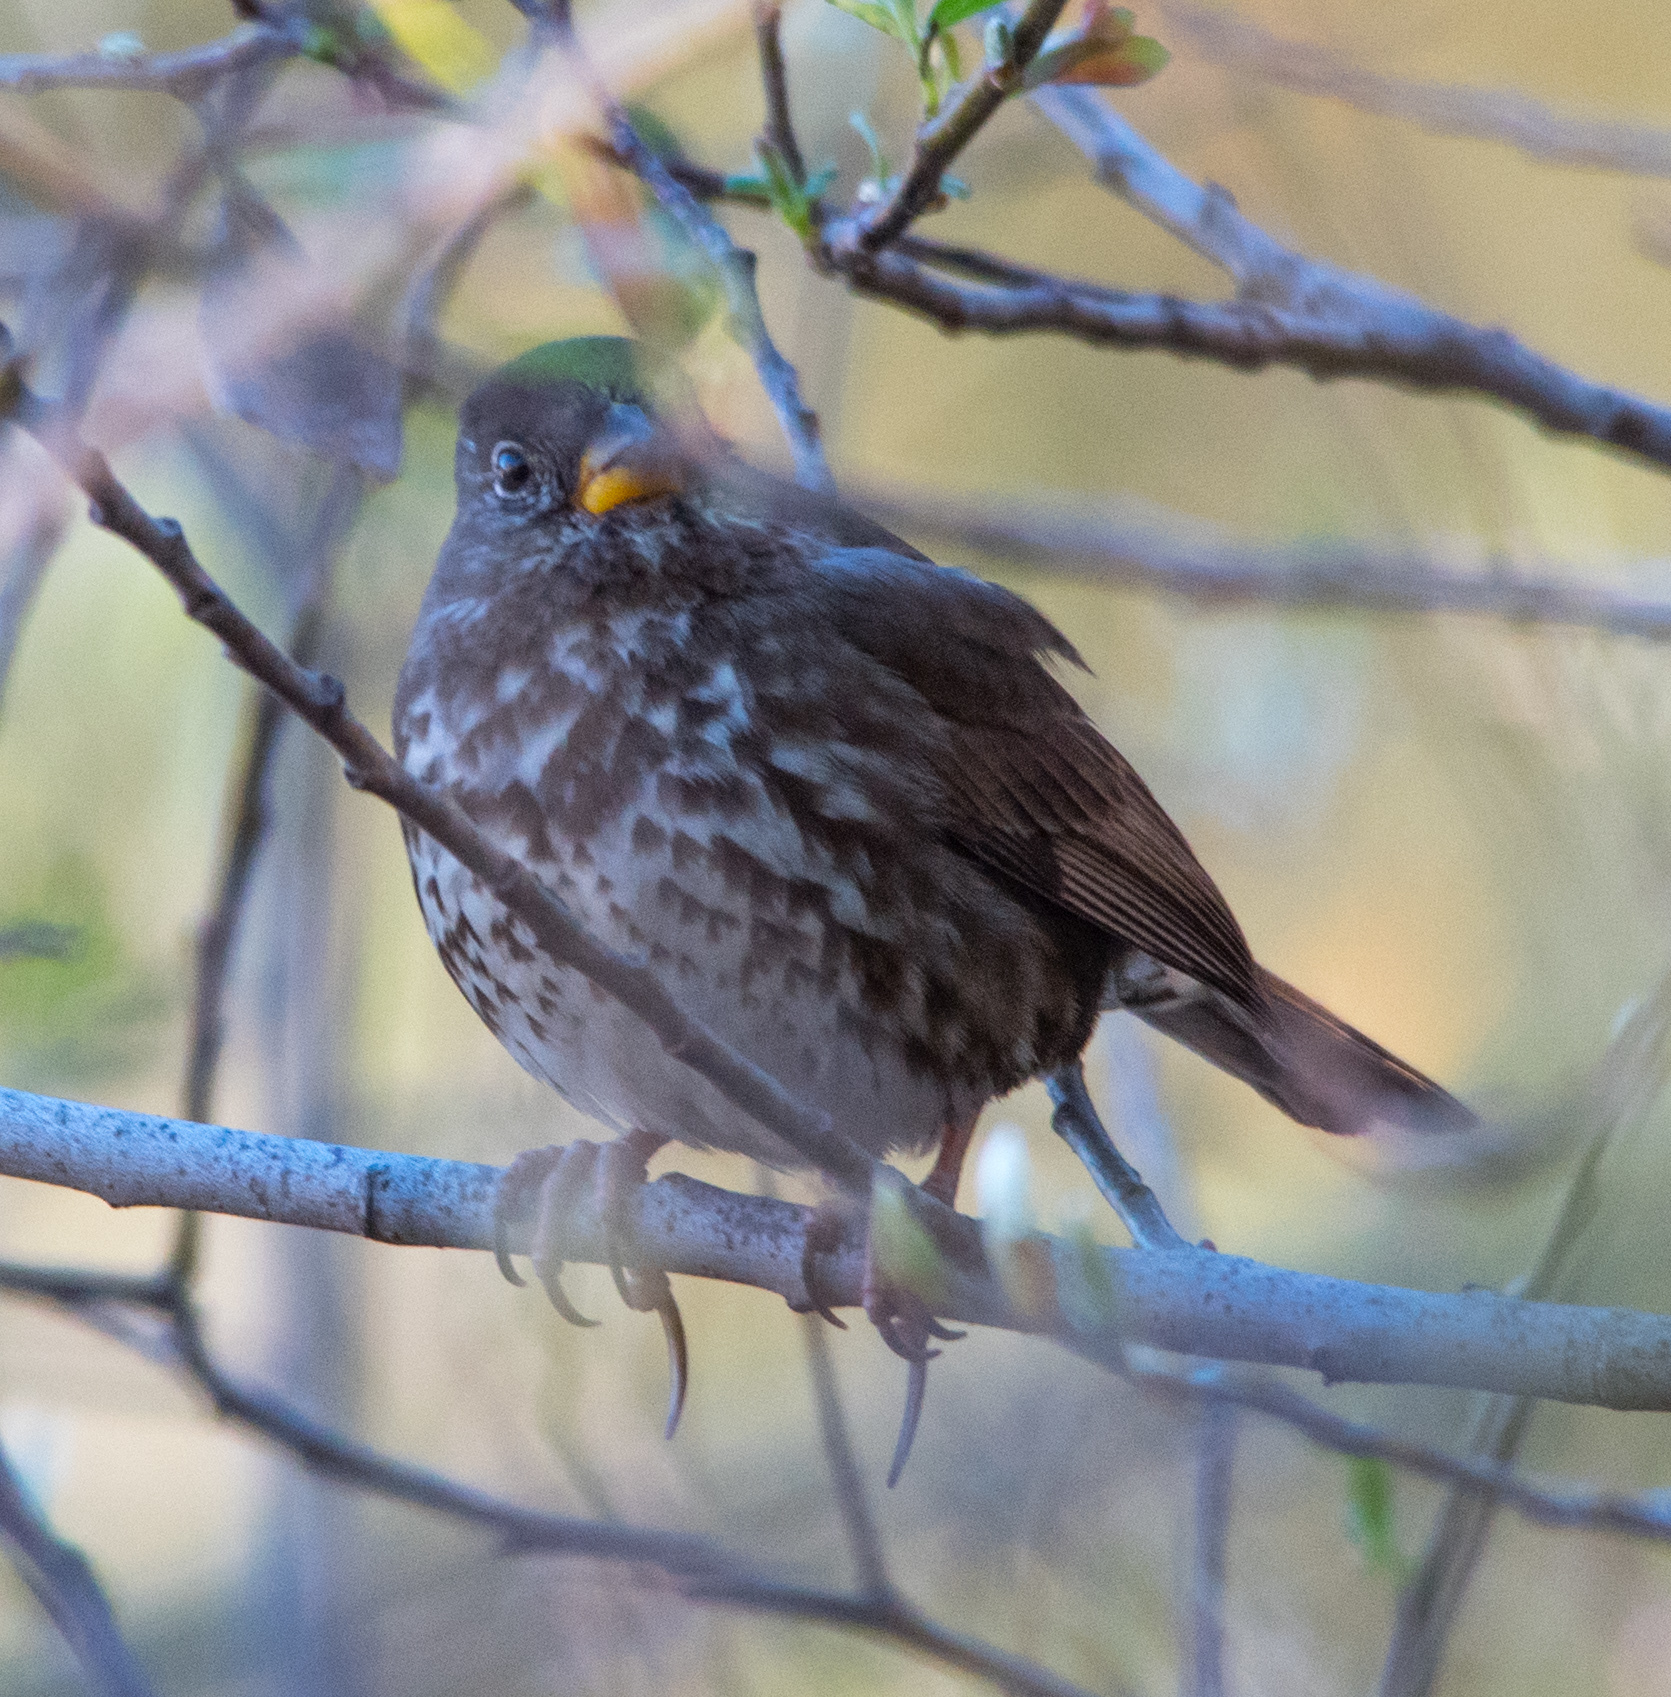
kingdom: Animalia
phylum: Chordata
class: Aves
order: Passeriformes
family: Passerellidae
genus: Passerella
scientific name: Passerella iliaca
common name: Fox sparrow
